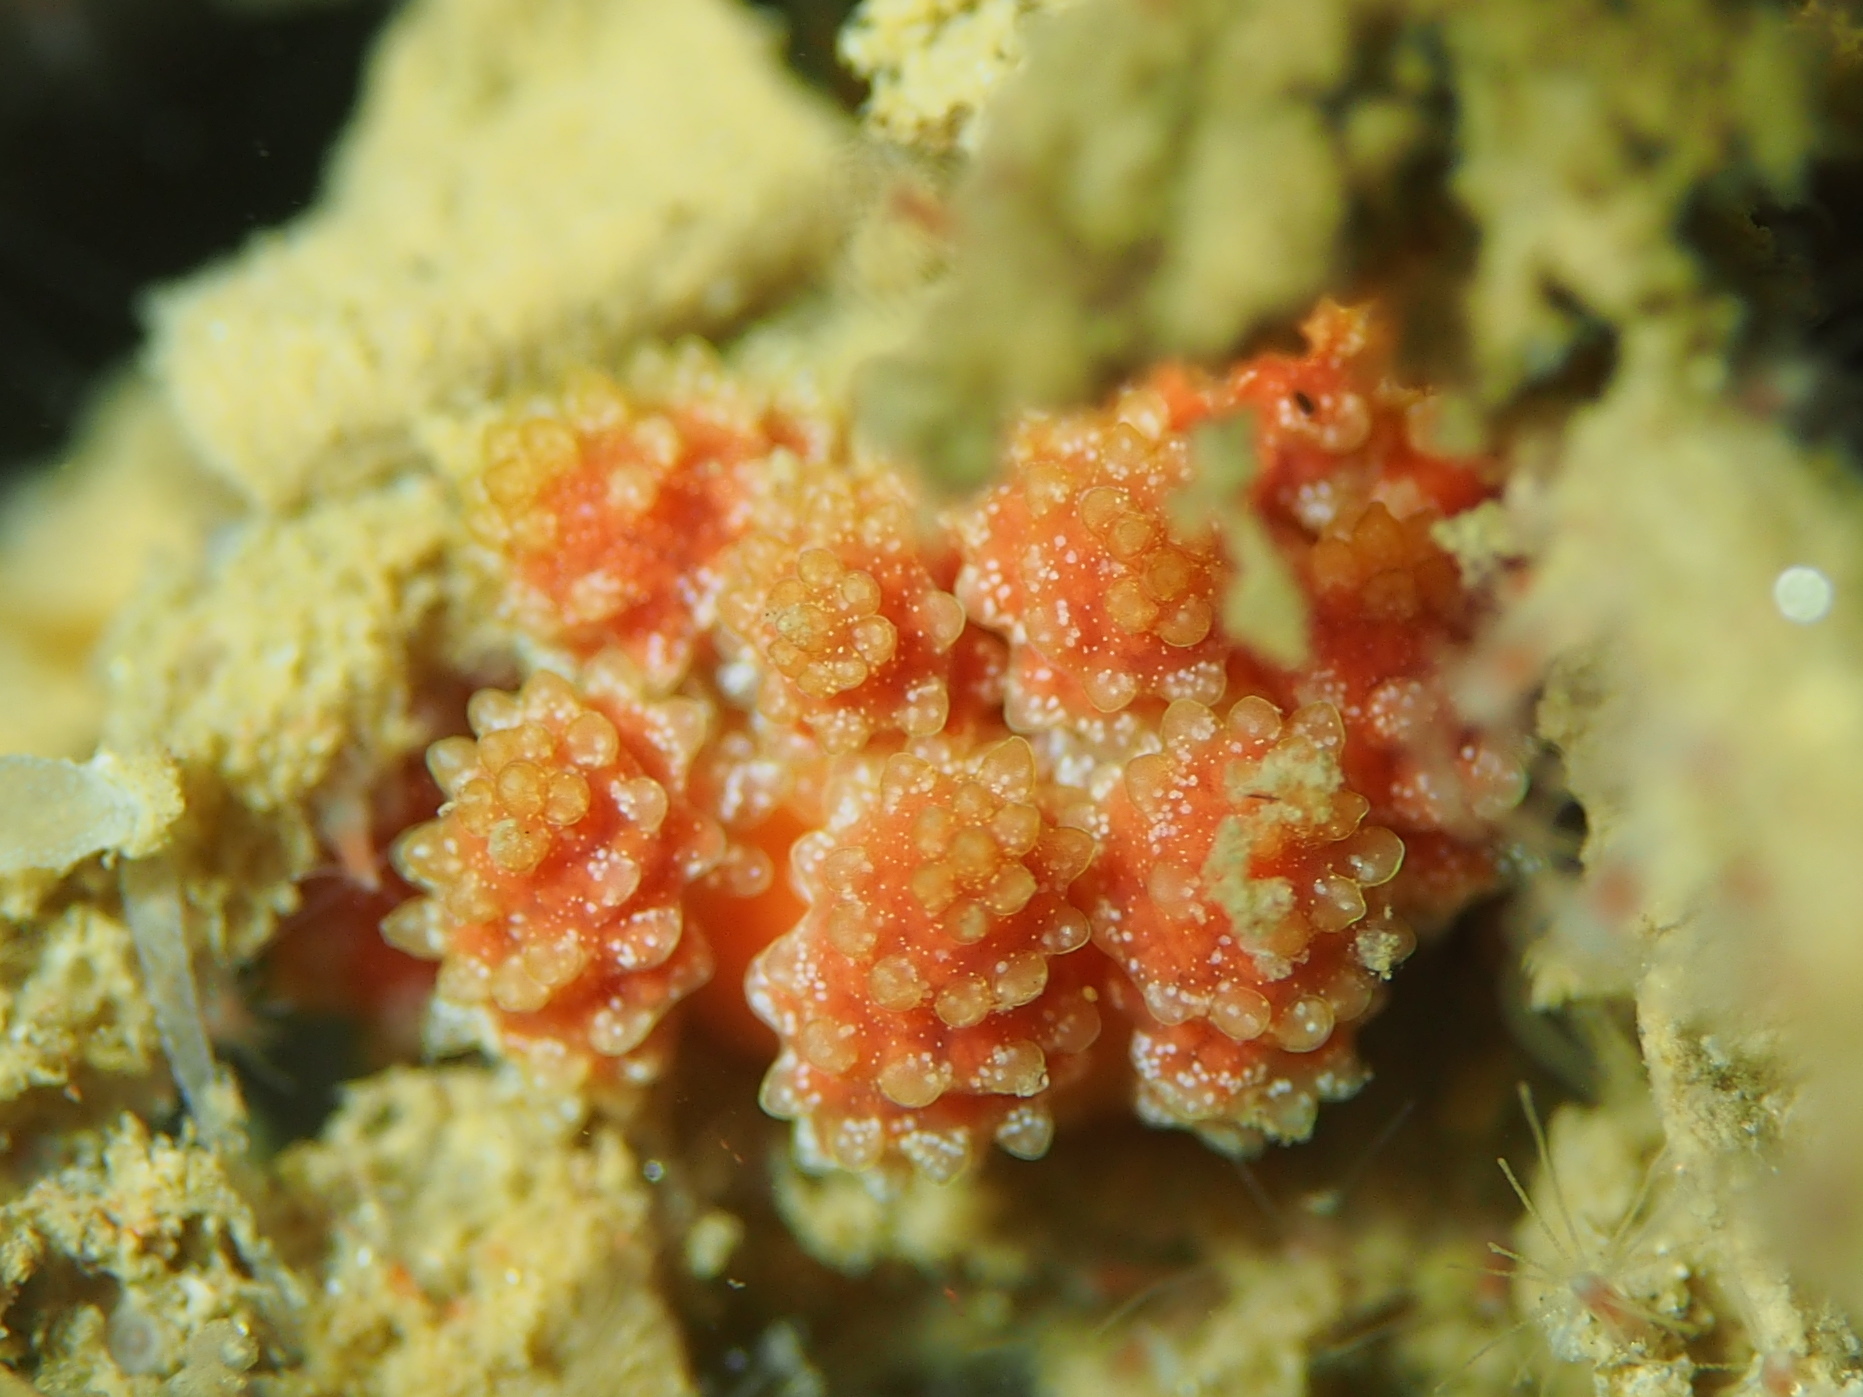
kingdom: Animalia
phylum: Mollusca
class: Gastropoda
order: Nudibranchia
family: Dotidae
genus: Doto
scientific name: Doto fragilis
